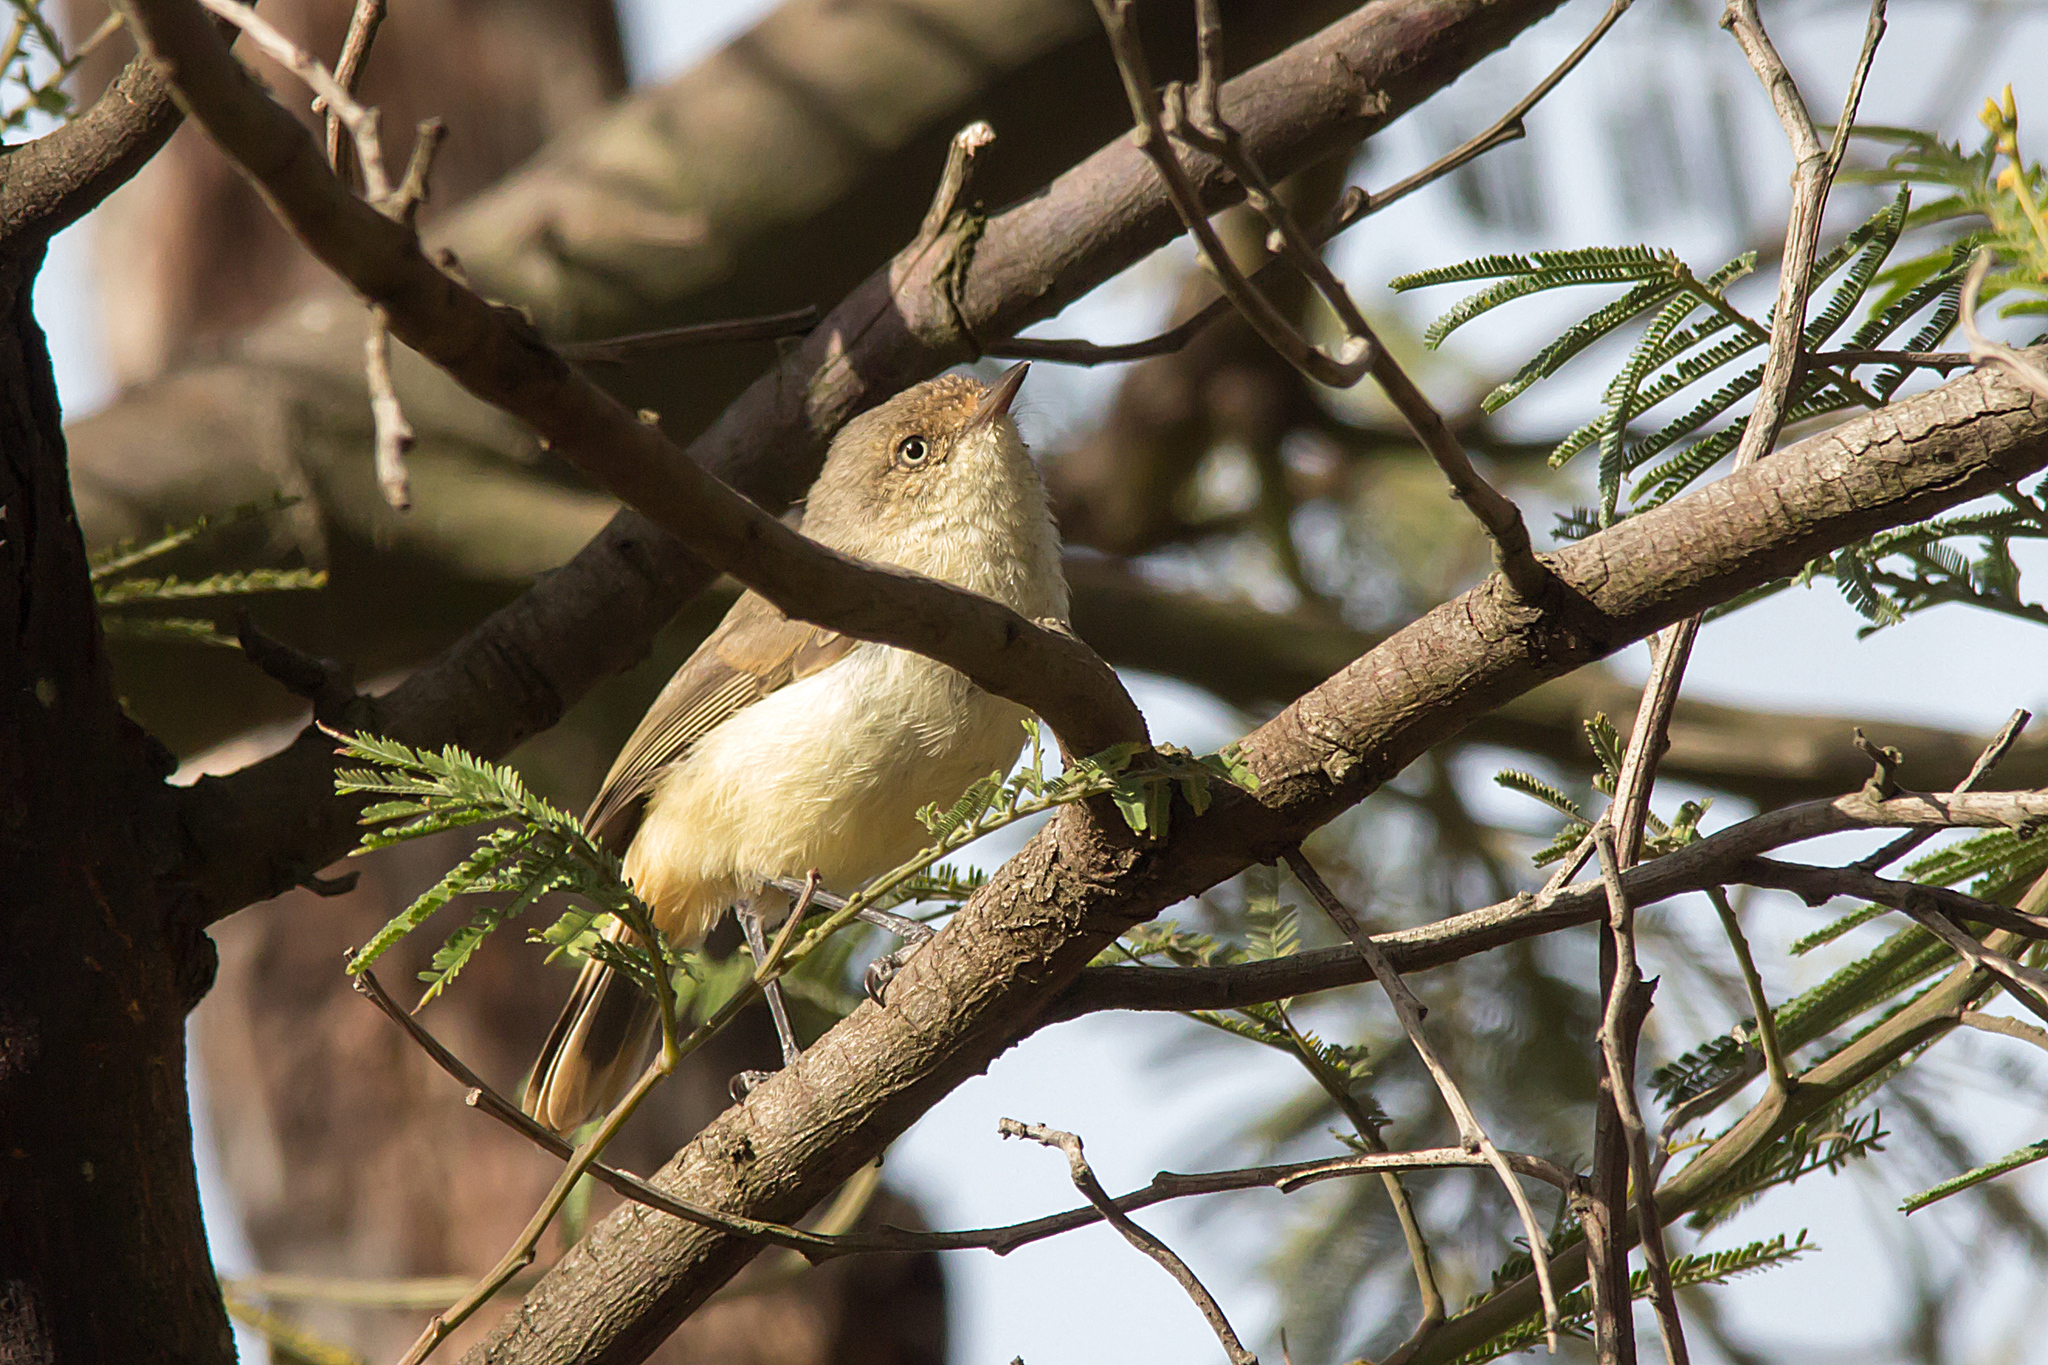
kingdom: Animalia
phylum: Chordata
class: Aves
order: Passeriformes
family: Acanthizidae
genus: Acanthiza
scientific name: Acanthiza reguloides
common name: Buff-rumped thornbill
